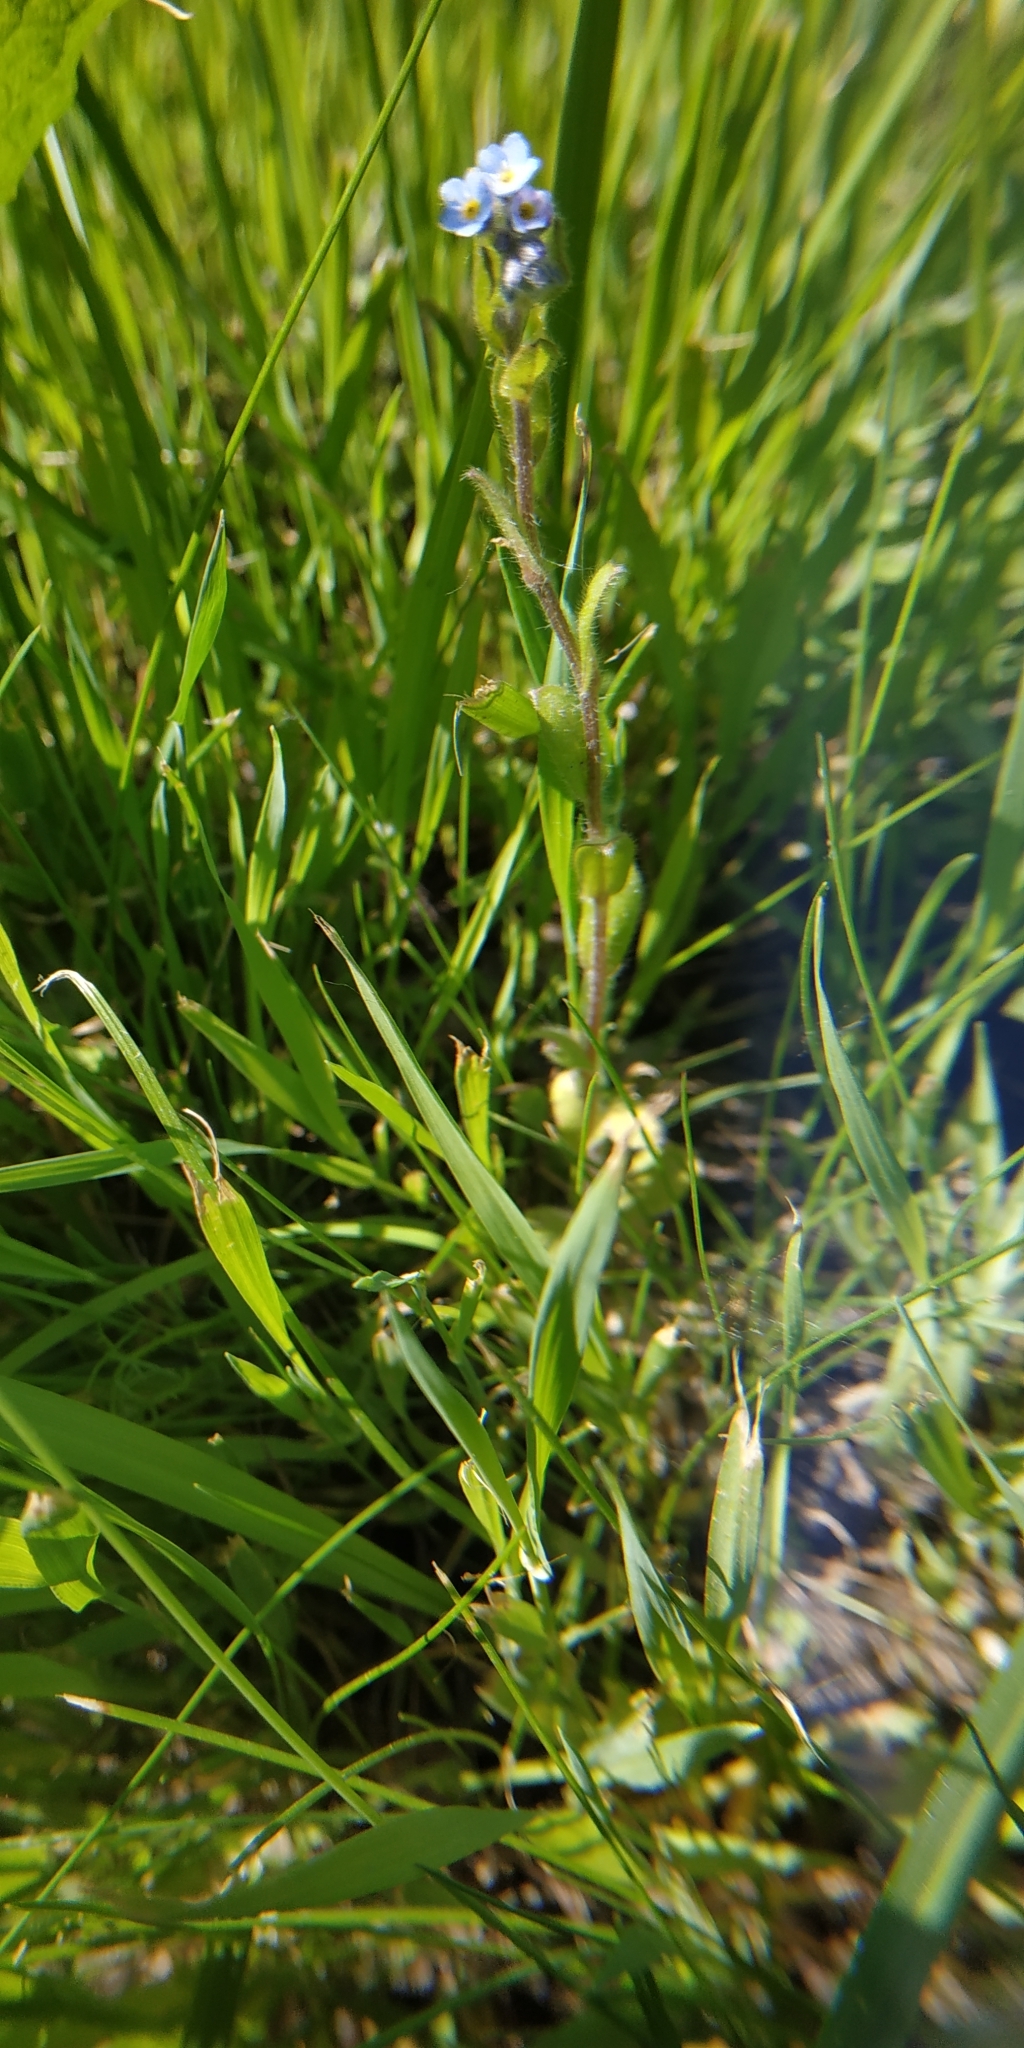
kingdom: Plantae
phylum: Tracheophyta
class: Magnoliopsida
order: Boraginales
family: Boraginaceae
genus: Myosotis
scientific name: Myosotis arvensis
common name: Field forget-me-not
